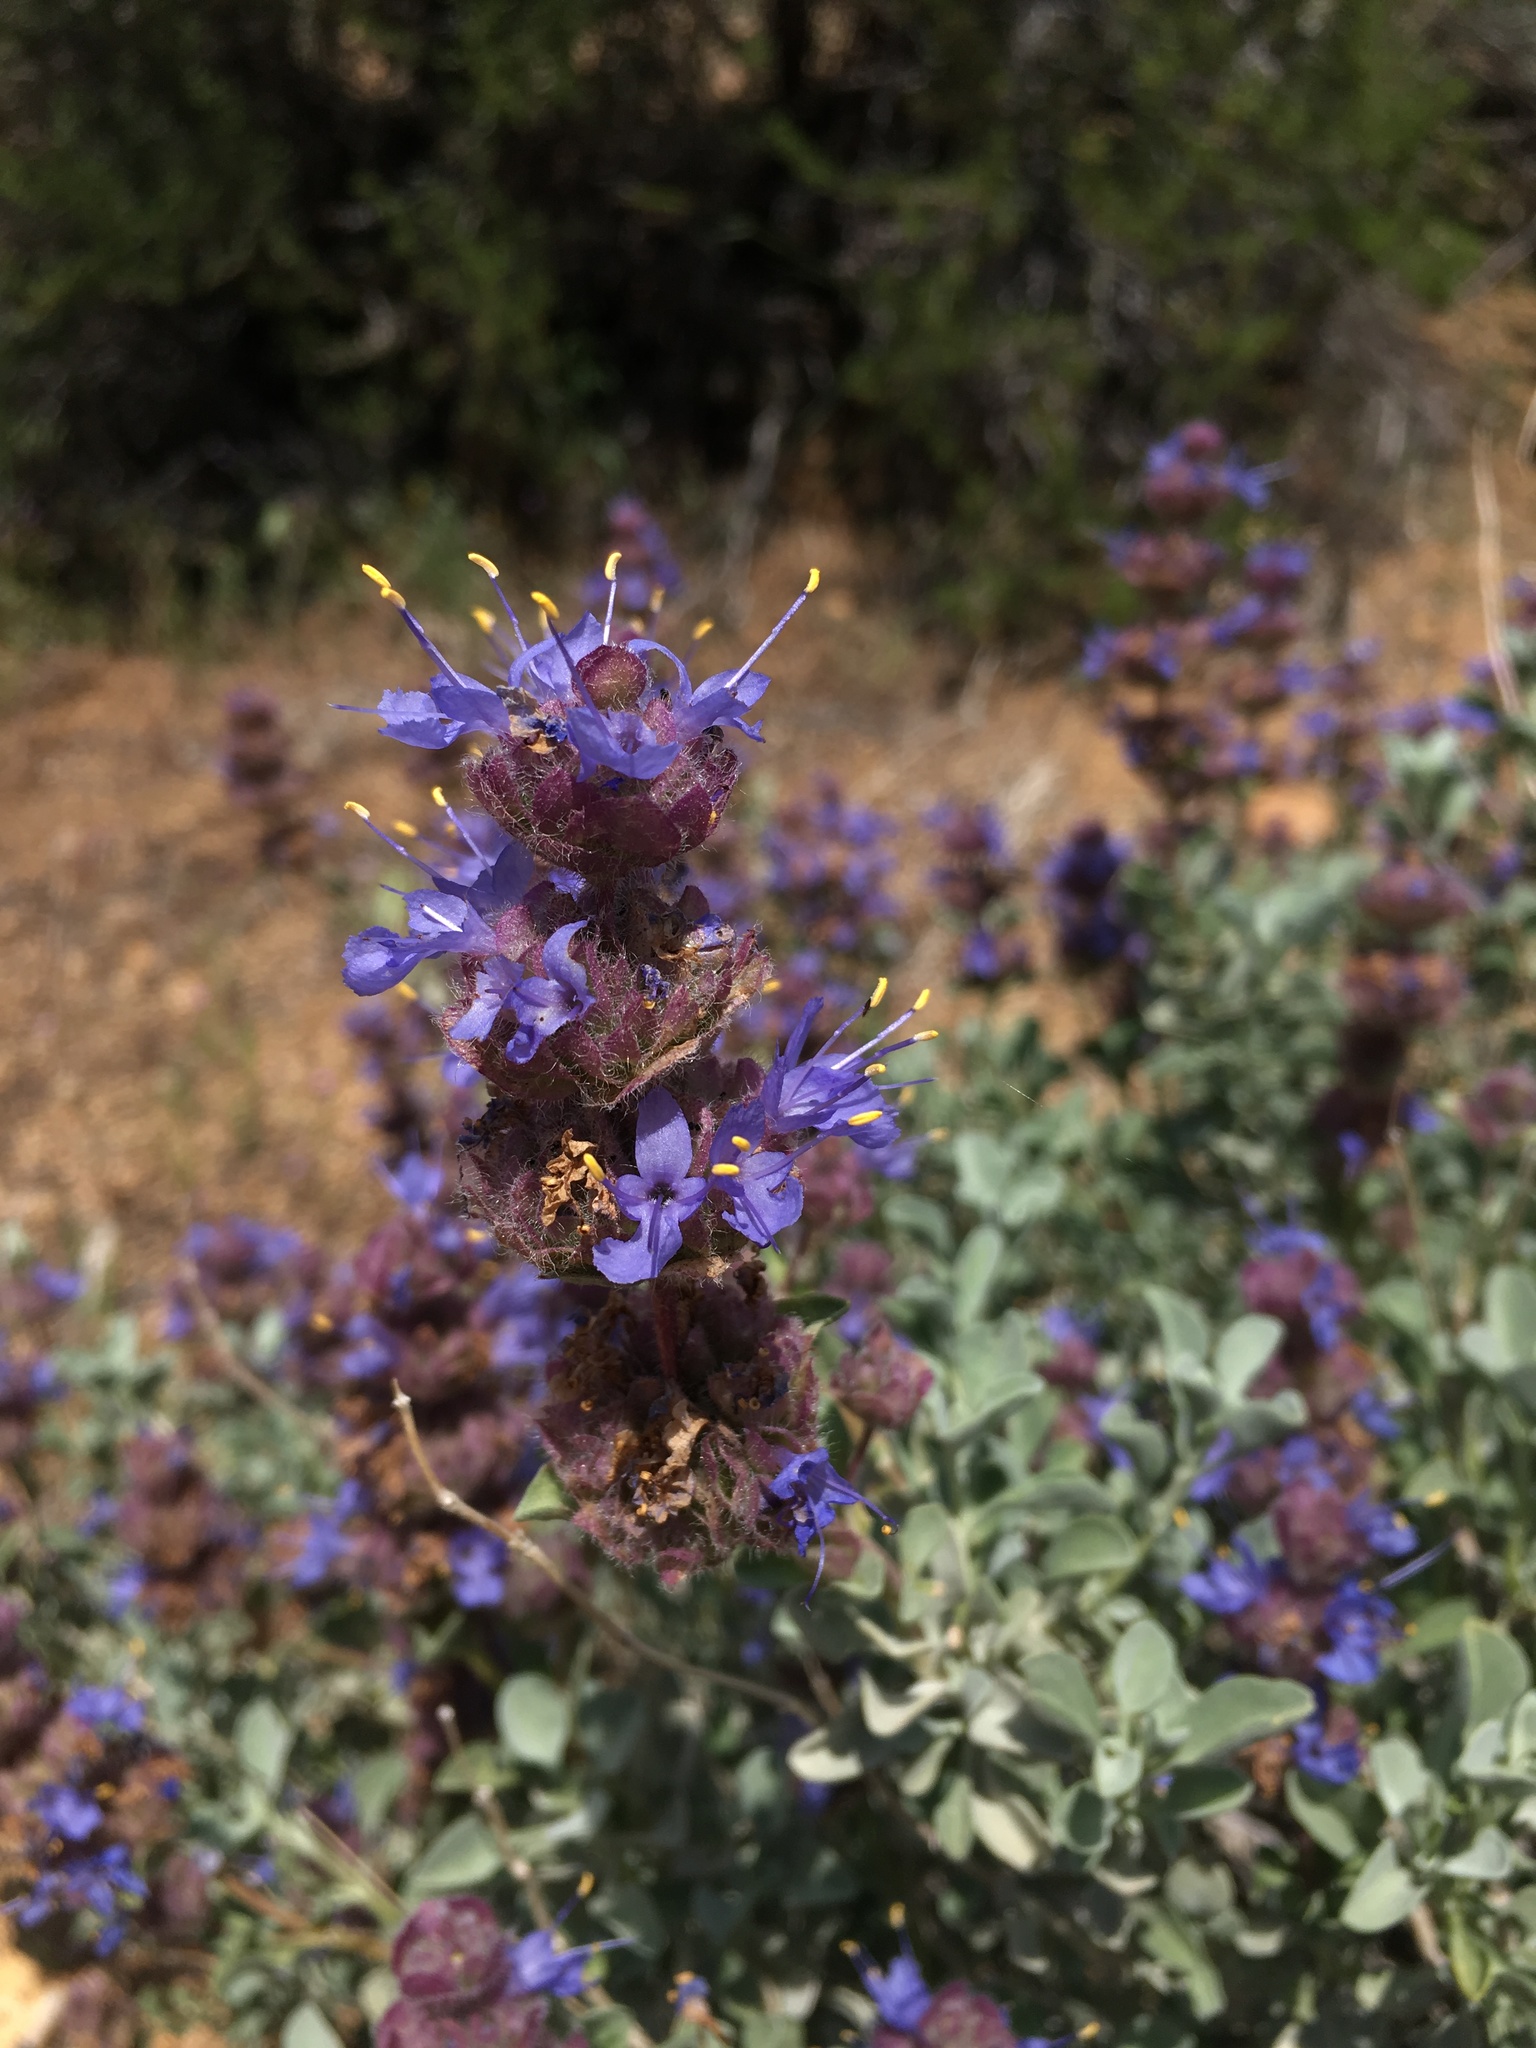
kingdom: Plantae
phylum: Tracheophyta
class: Magnoliopsida
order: Lamiales
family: Lamiaceae
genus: Salvia
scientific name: Salvia dorrii
